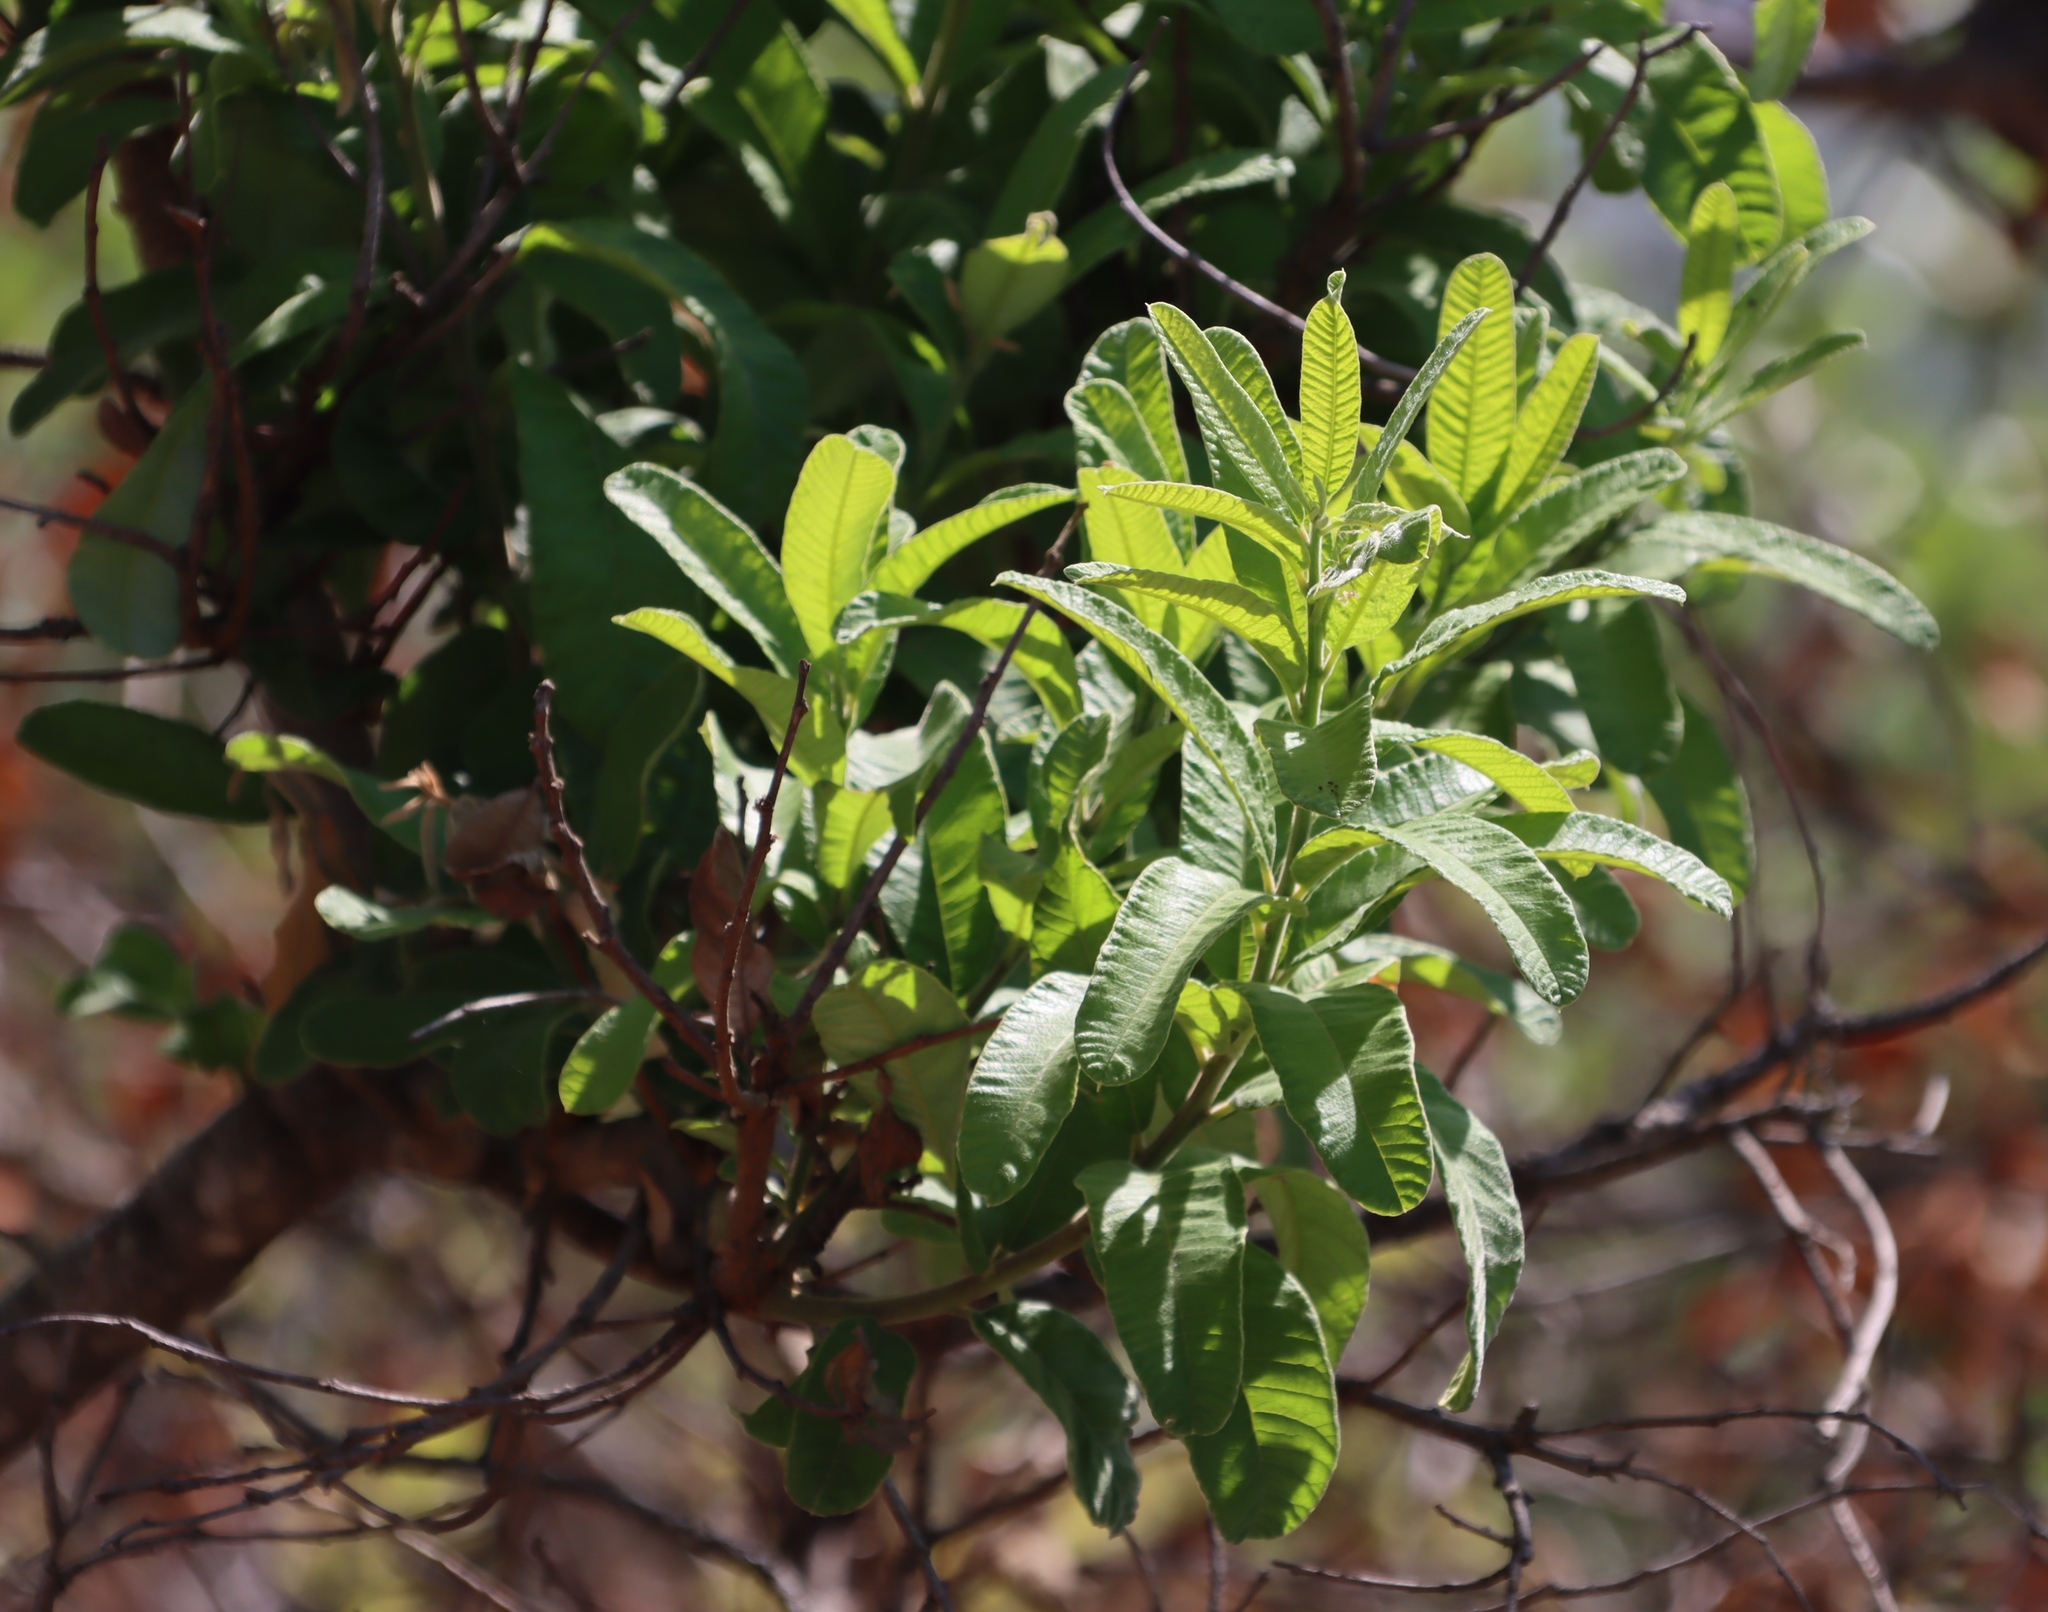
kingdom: Plantae
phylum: Tracheophyta
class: Magnoliopsida
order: Sapindales
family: Anacardiaceae
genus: Ozoroa
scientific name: Ozoroa paniculosa
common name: Bushveld ozoroa
